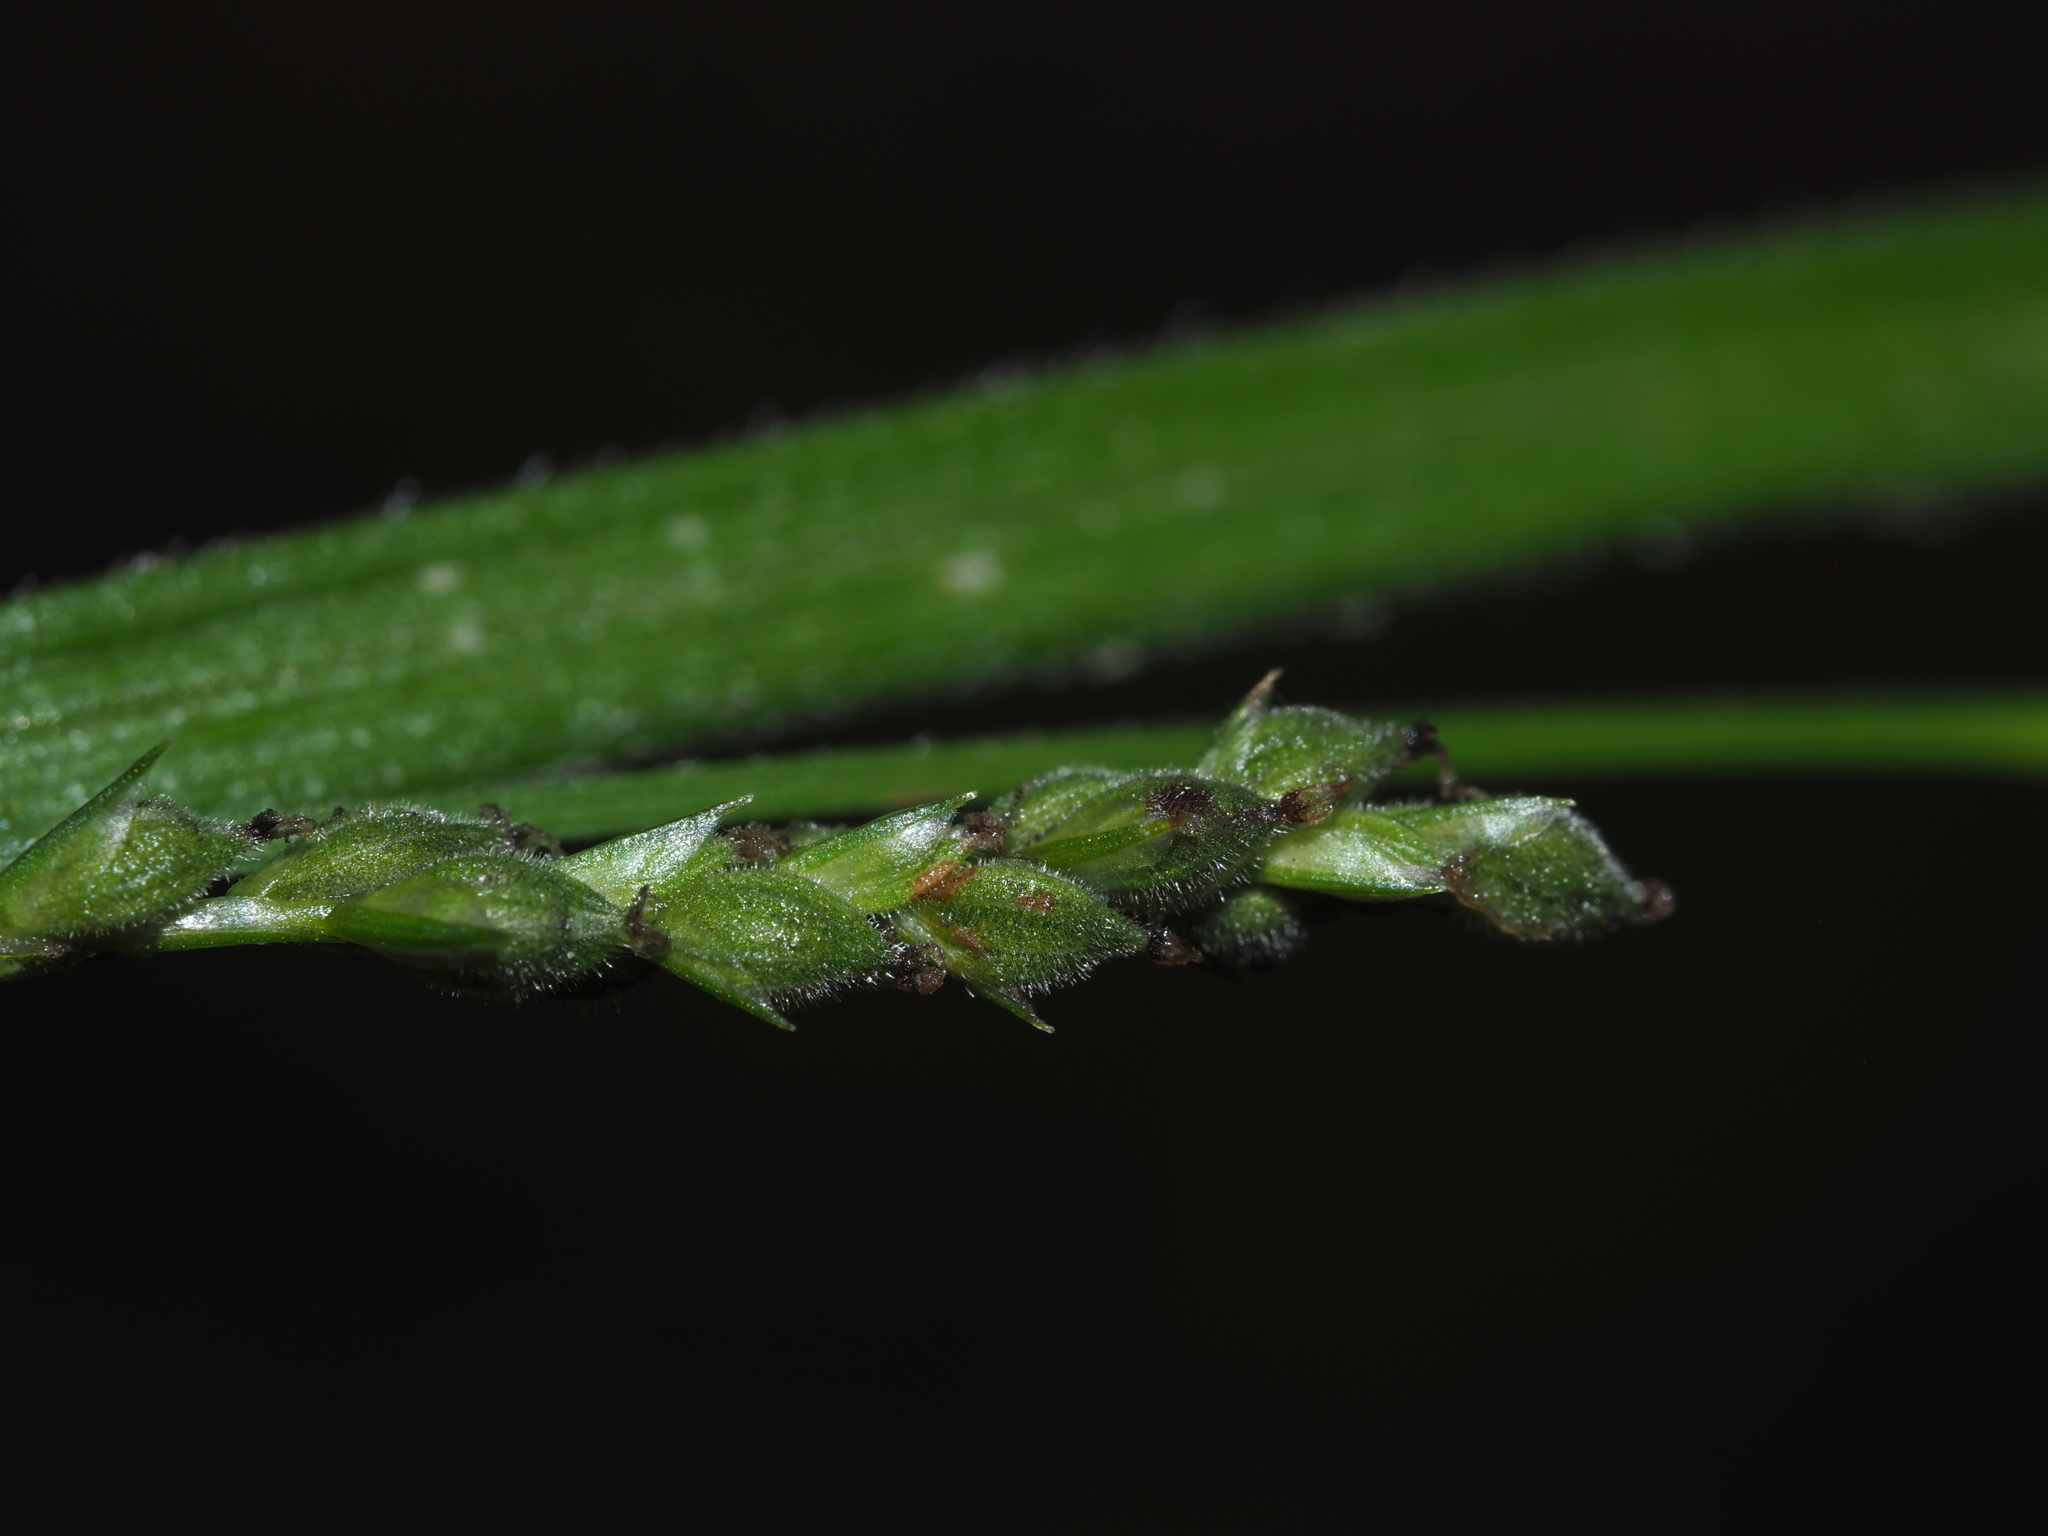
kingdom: Plantae
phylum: Tracheophyta
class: Liliopsida
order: Poales
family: Cyperaceae
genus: Carex
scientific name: Carex virescens
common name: Ribbed sedge
